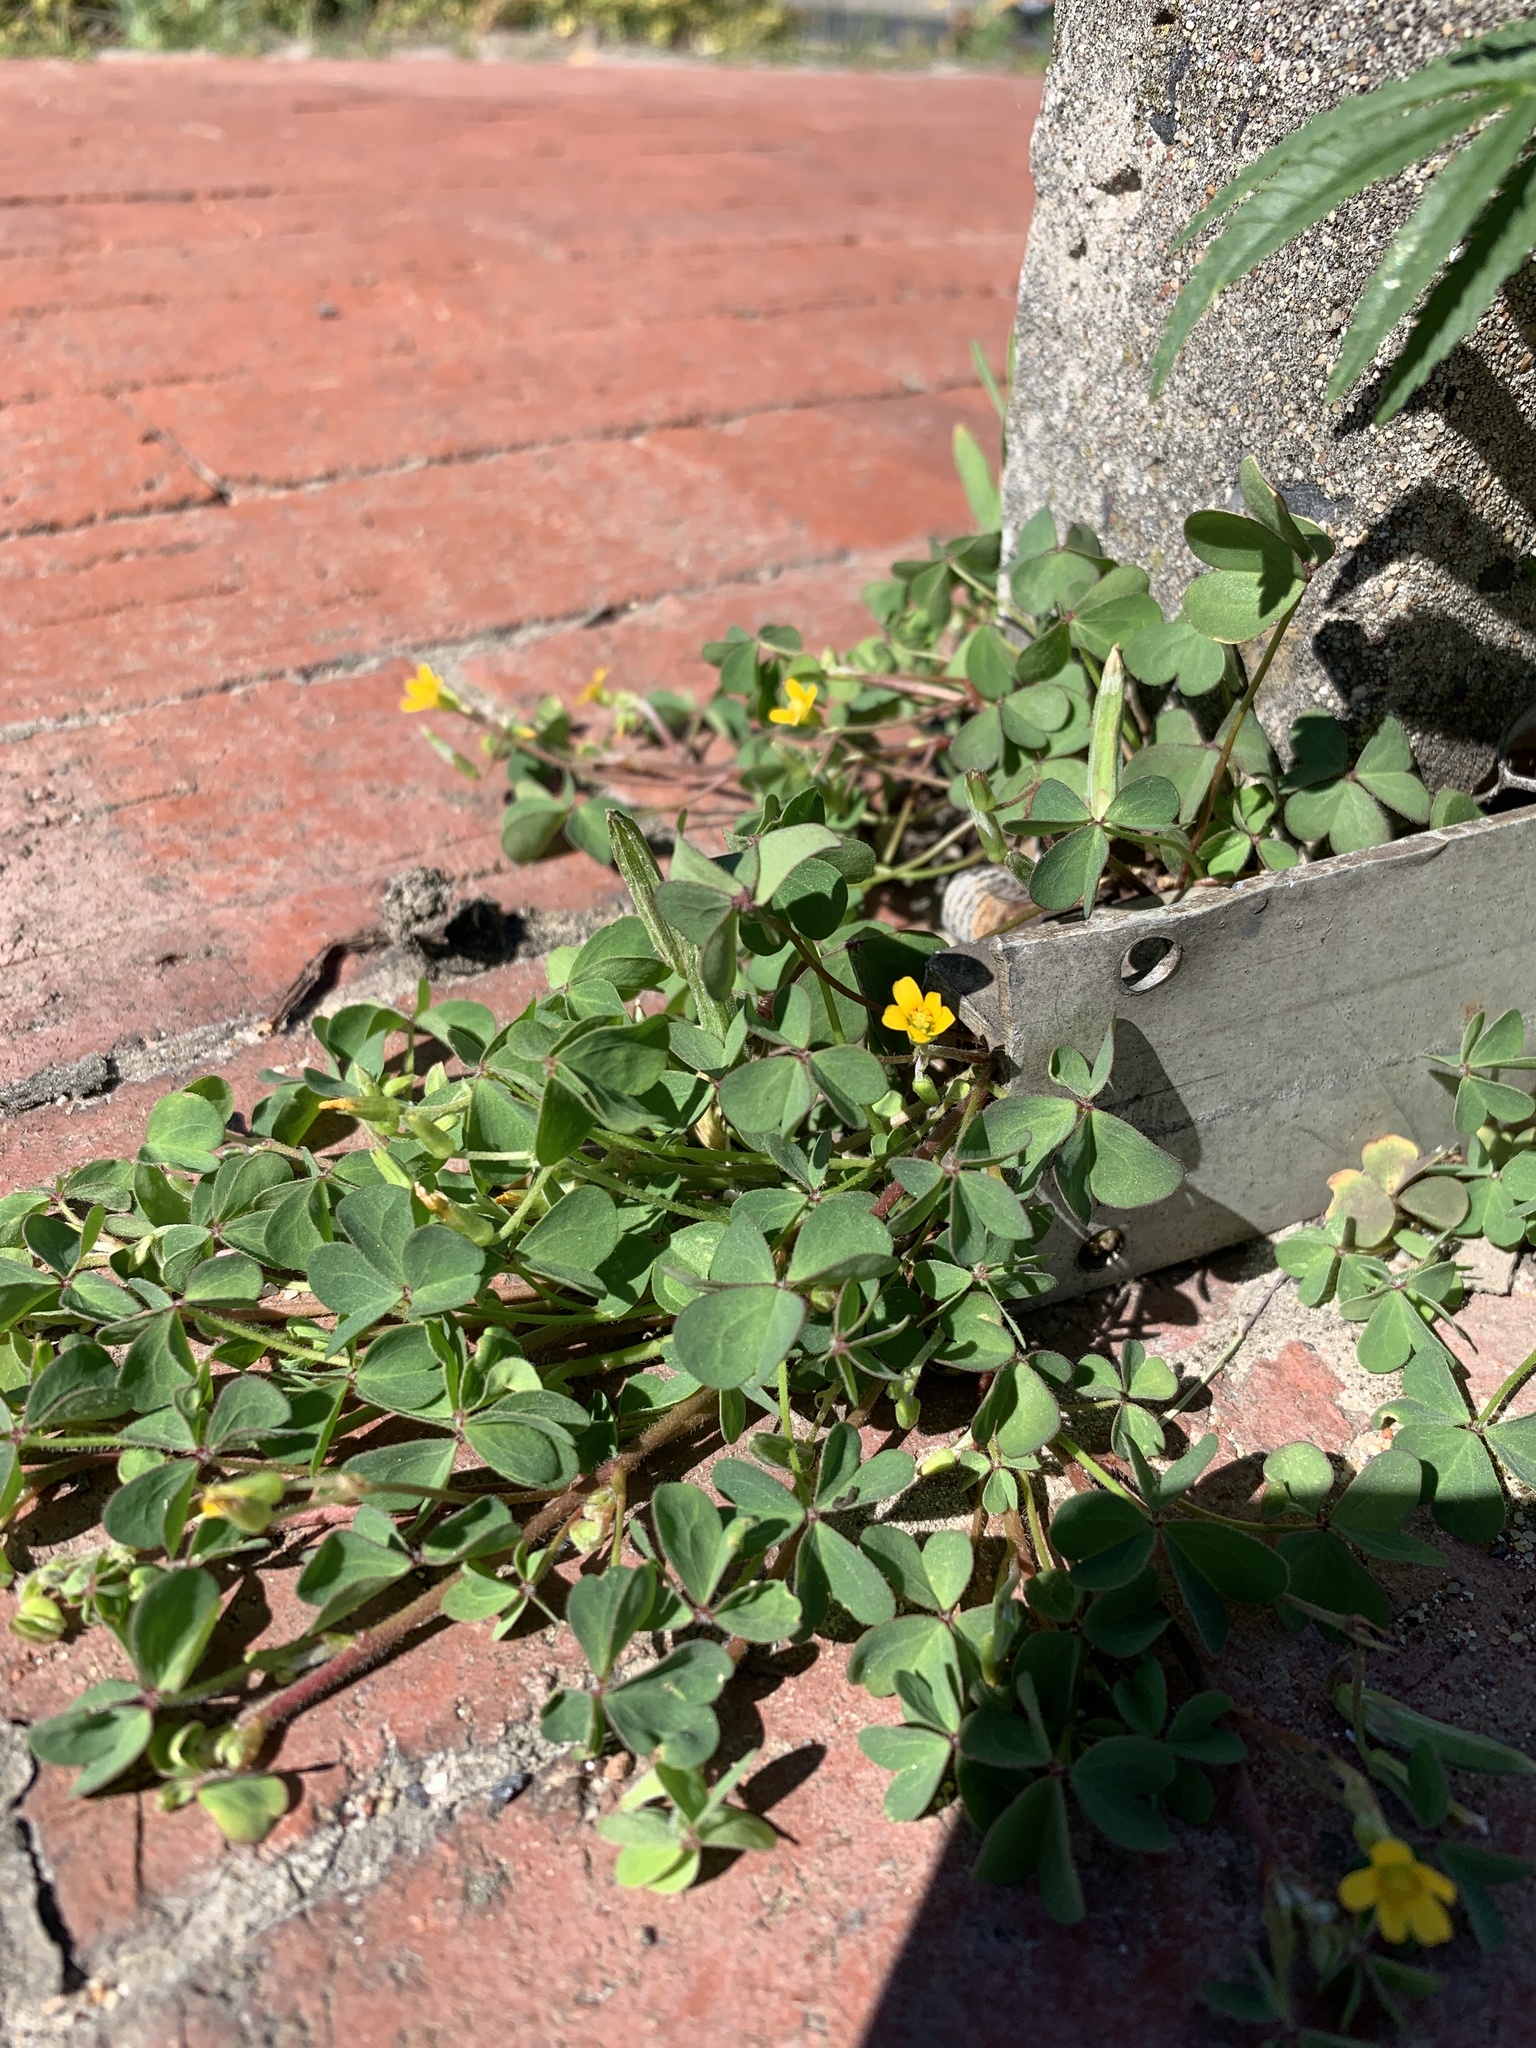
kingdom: Plantae
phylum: Tracheophyta
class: Magnoliopsida
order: Oxalidales
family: Oxalidaceae
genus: Oxalis
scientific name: Oxalis corniculata
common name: Procumbent yellow-sorrel
